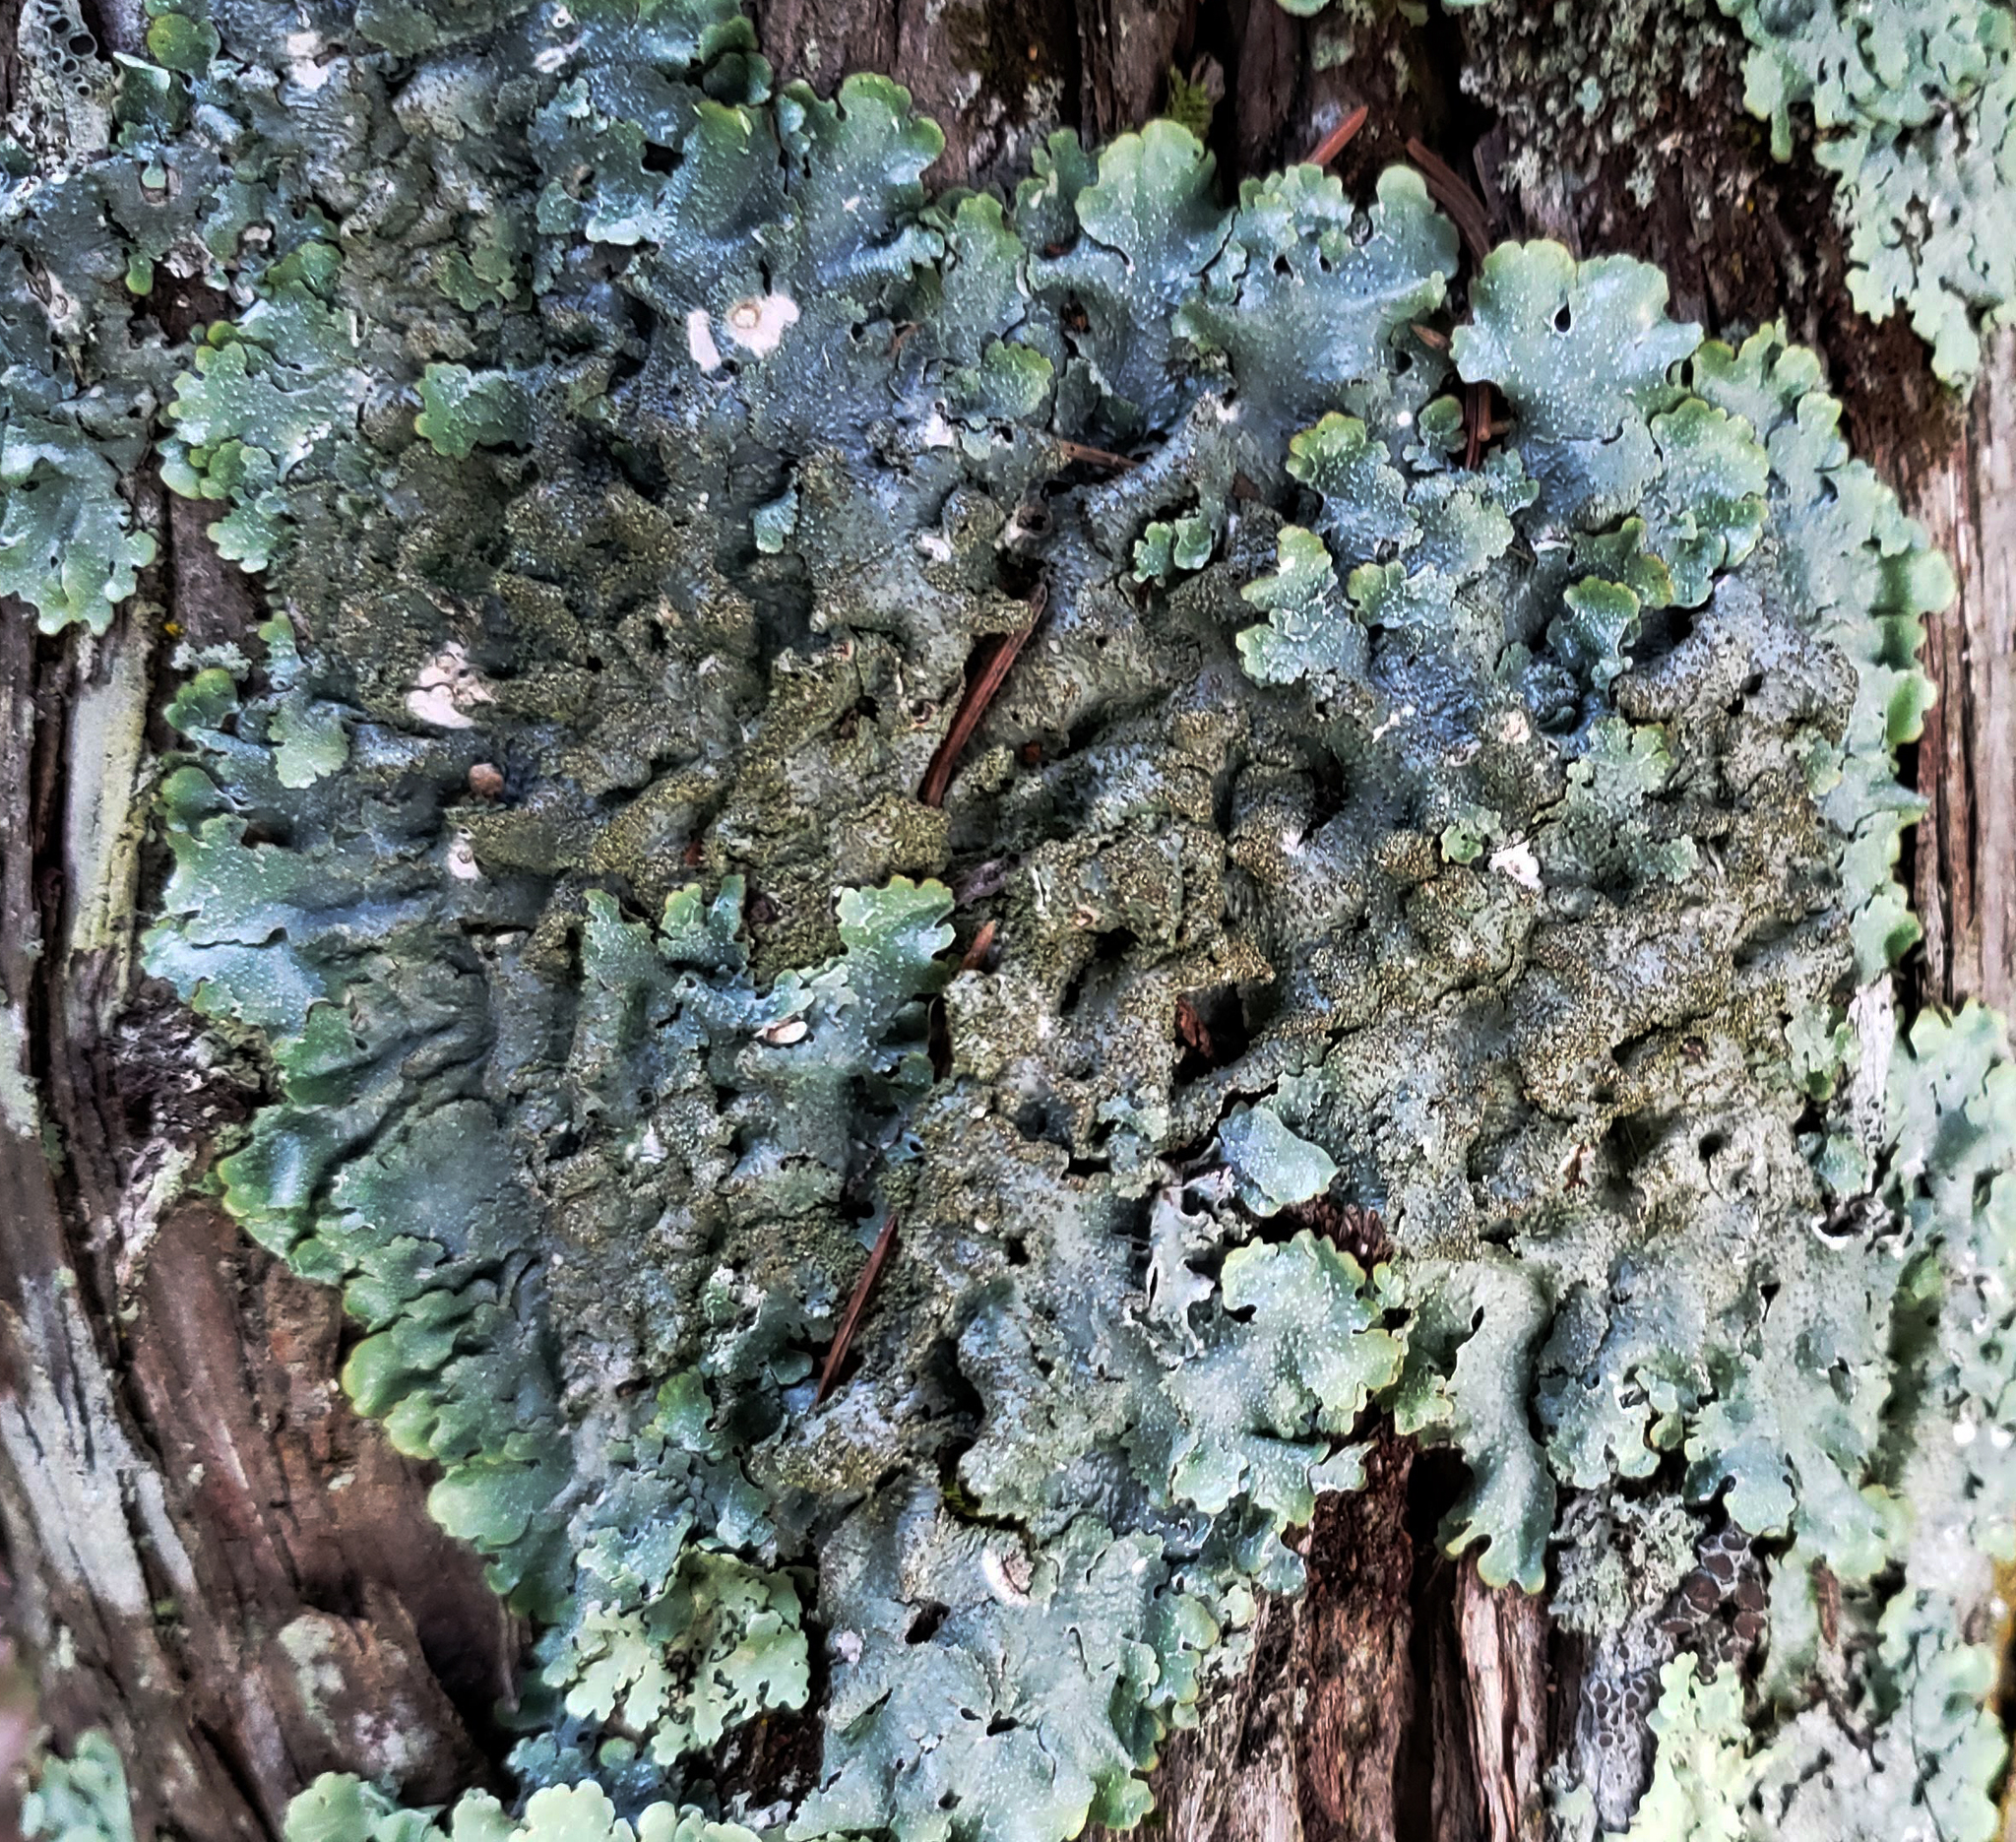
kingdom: Fungi
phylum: Ascomycota
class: Lecanoromycetes
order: Lecanorales
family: Parmeliaceae
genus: Punctelia
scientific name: Punctelia rudecta
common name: Rough speckled shield lichen
